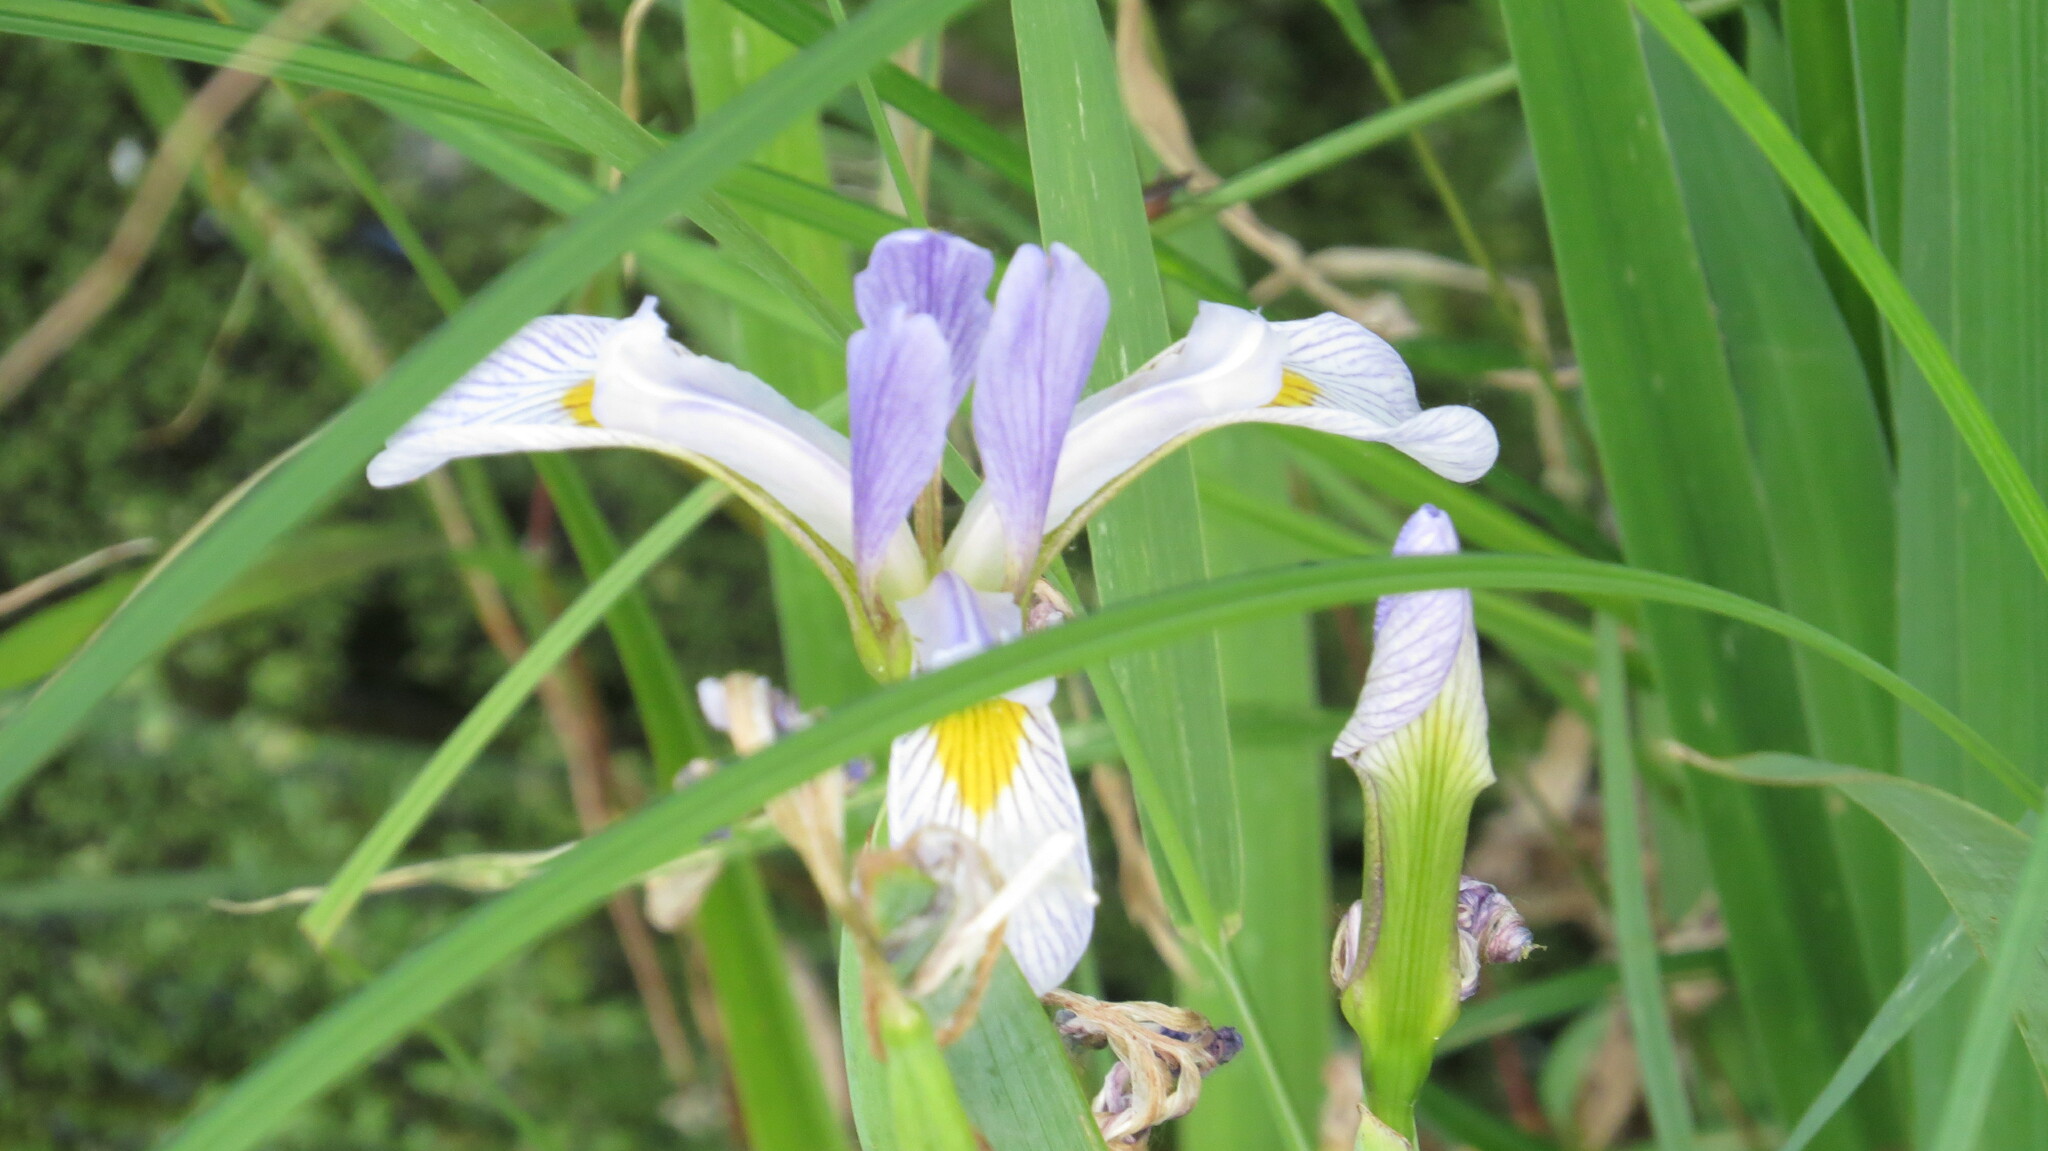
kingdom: Plantae
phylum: Tracheophyta
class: Liliopsida
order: Asparagales
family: Iridaceae
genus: Iris
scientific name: Iris virginica
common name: Southern blue flag
